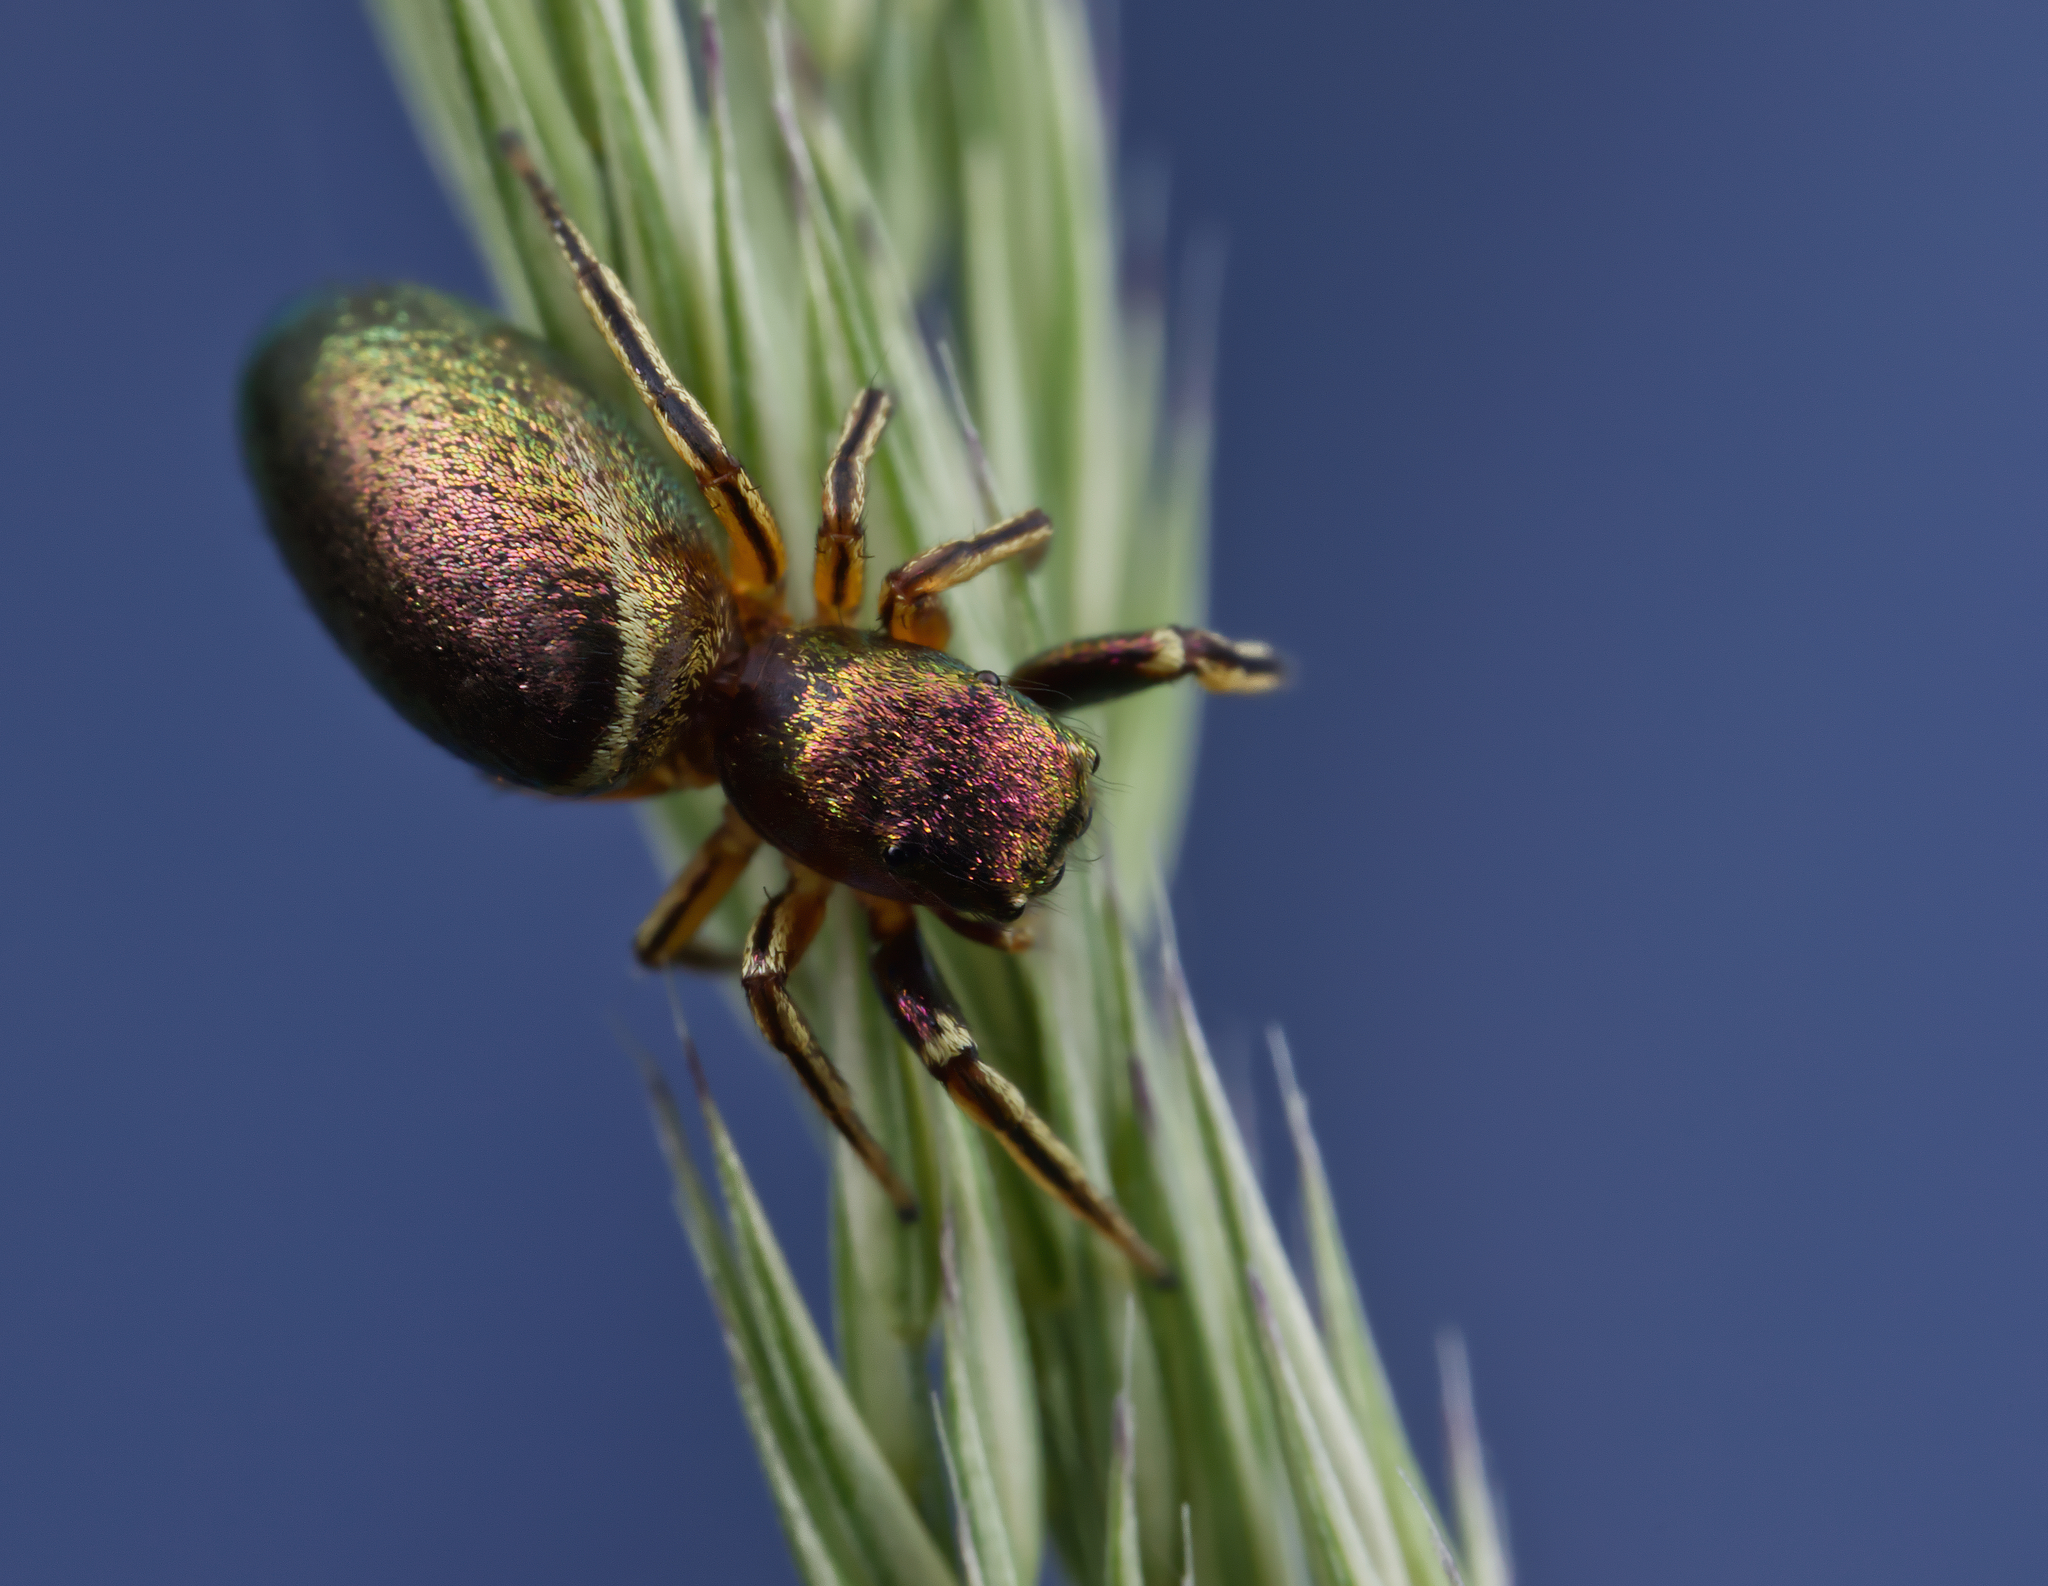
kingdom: Animalia
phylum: Arthropoda
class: Arachnida
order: Araneae
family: Salticidae
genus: Tutelina
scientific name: Tutelina elegans
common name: Thin-spined jumping spider
